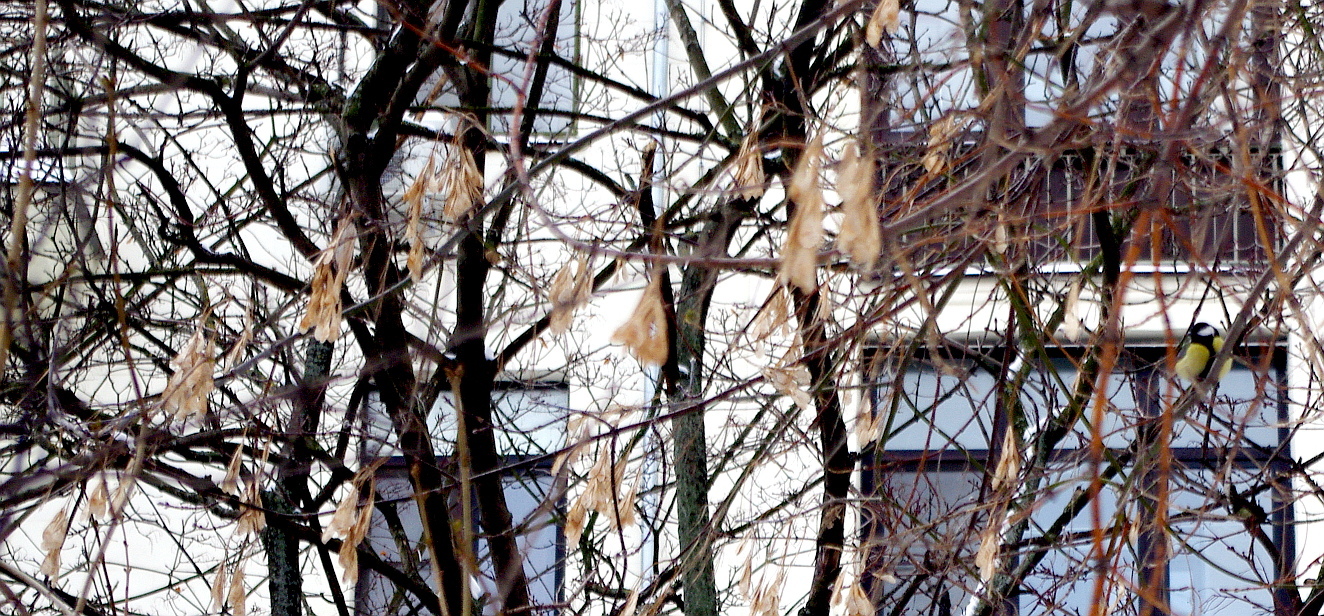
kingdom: Plantae
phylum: Tracheophyta
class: Magnoliopsida
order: Sapindales
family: Sapindaceae
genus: Acer
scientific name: Acer negundo
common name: Ashleaf maple
